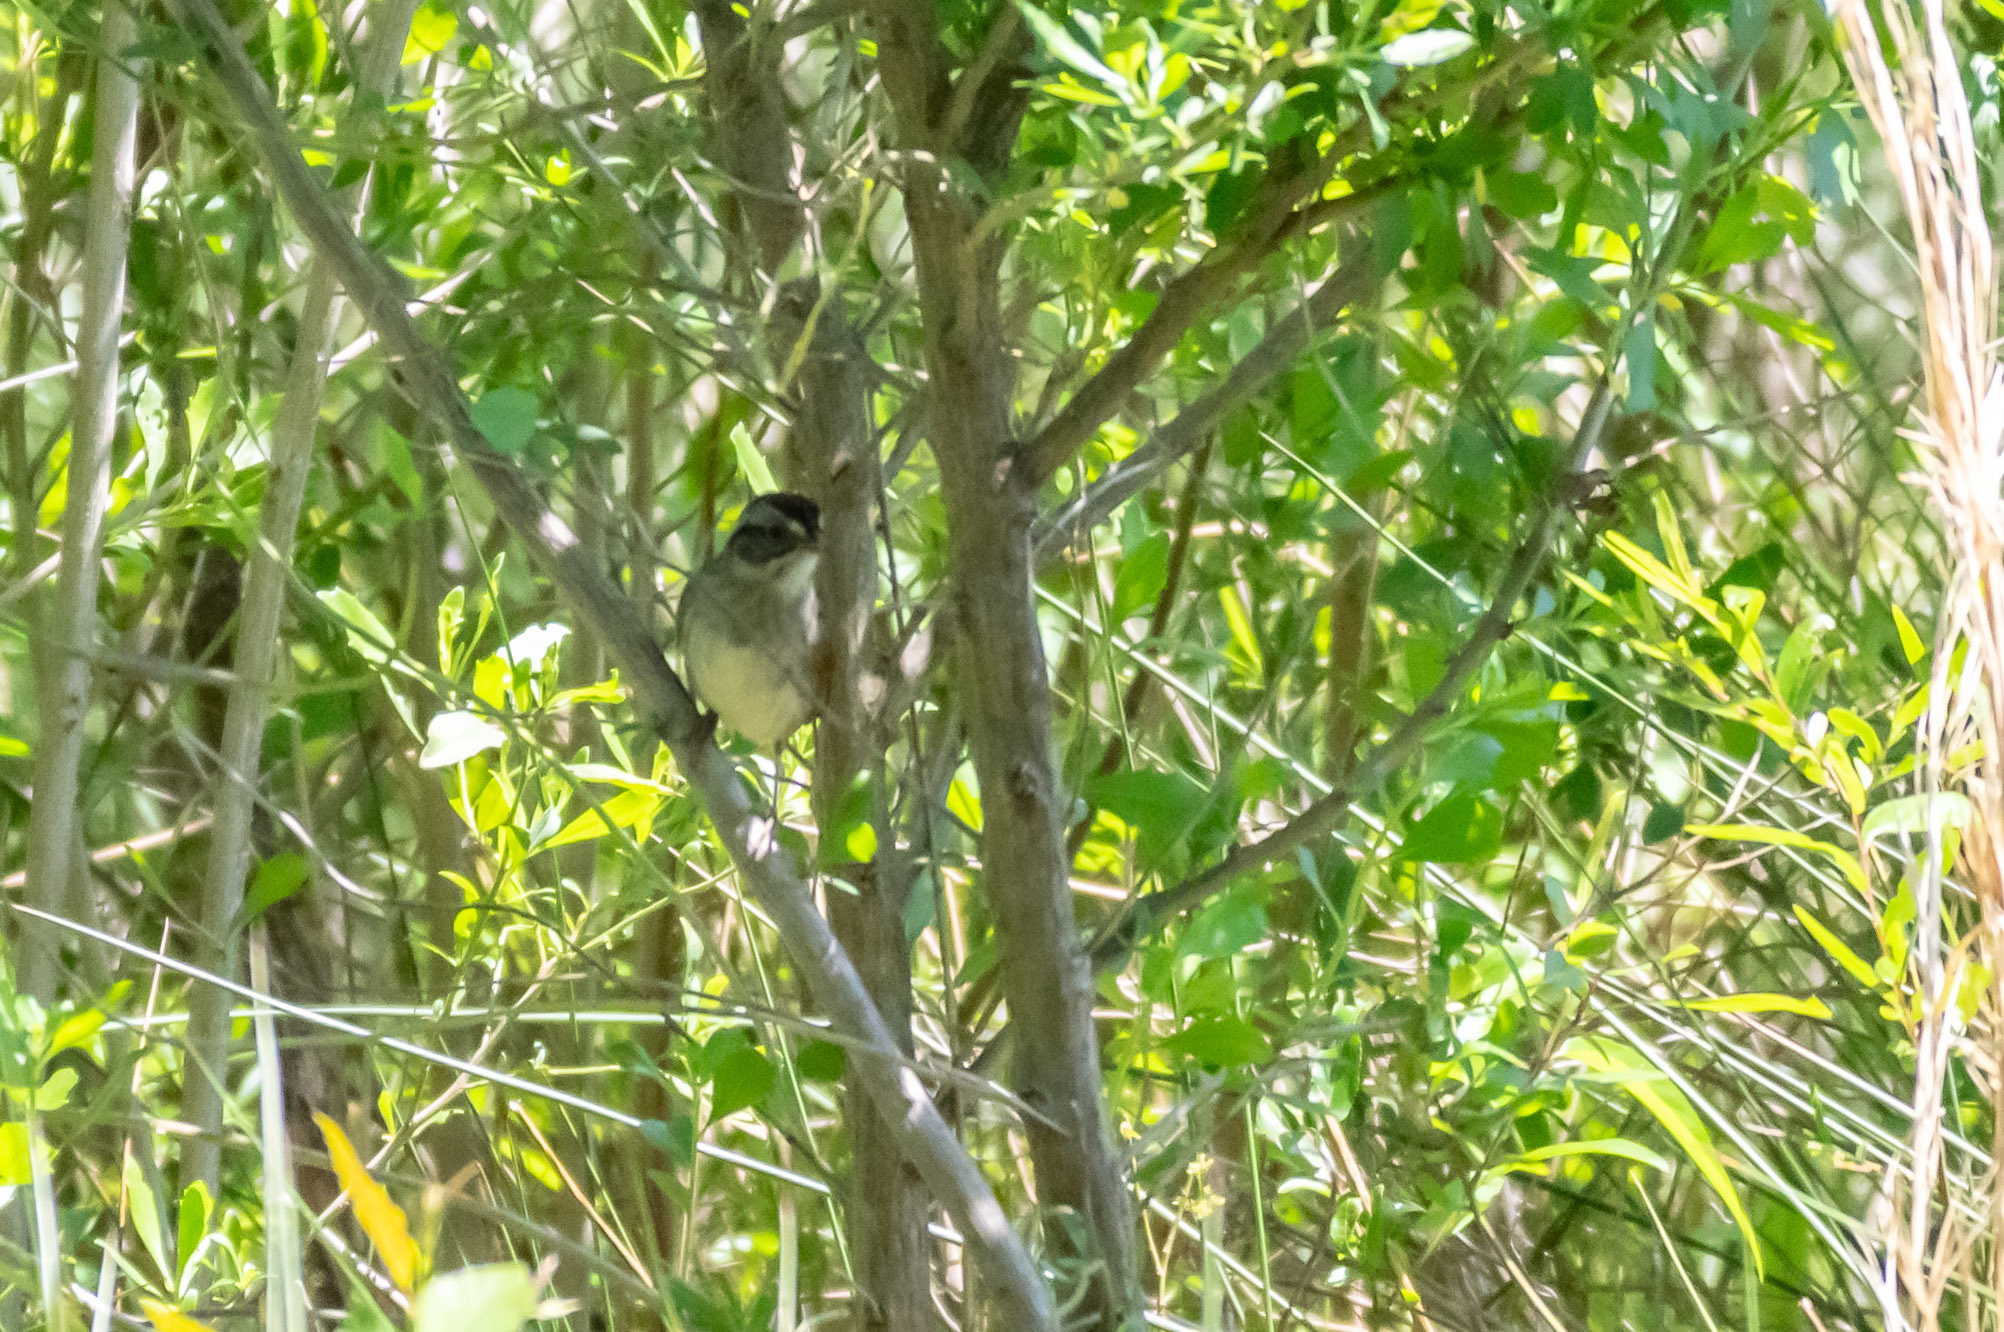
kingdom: Animalia
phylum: Chordata
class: Aves
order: Passeriformes
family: Passerellidae
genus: Melospiza
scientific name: Melospiza georgiana
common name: Swamp sparrow
